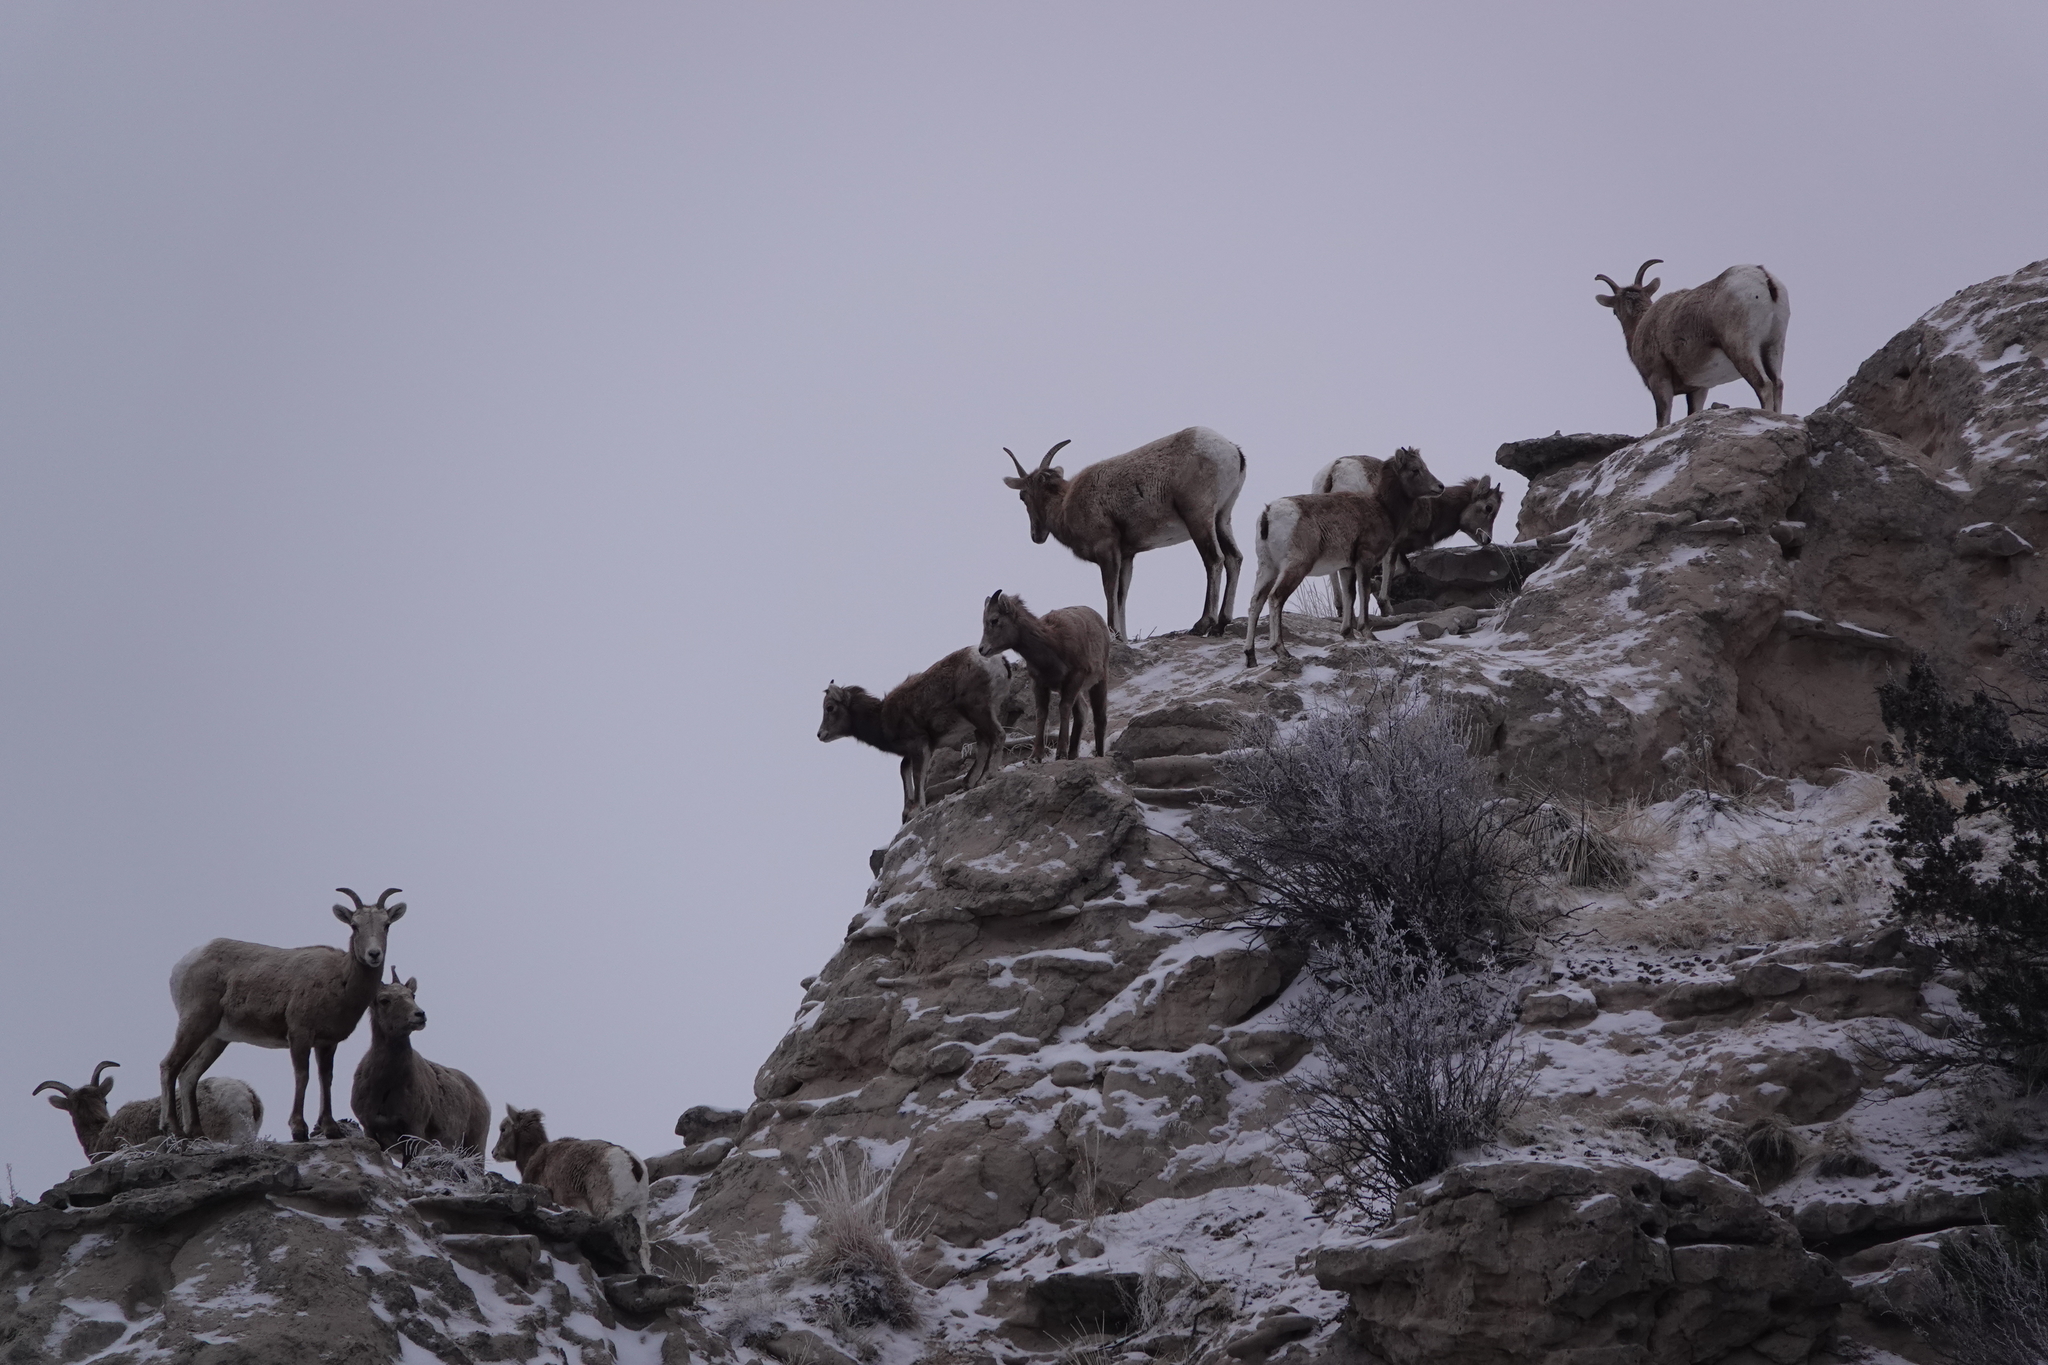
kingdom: Animalia
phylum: Chordata
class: Mammalia
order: Artiodactyla
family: Bovidae
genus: Ovis
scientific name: Ovis canadensis
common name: Bighorn sheep
